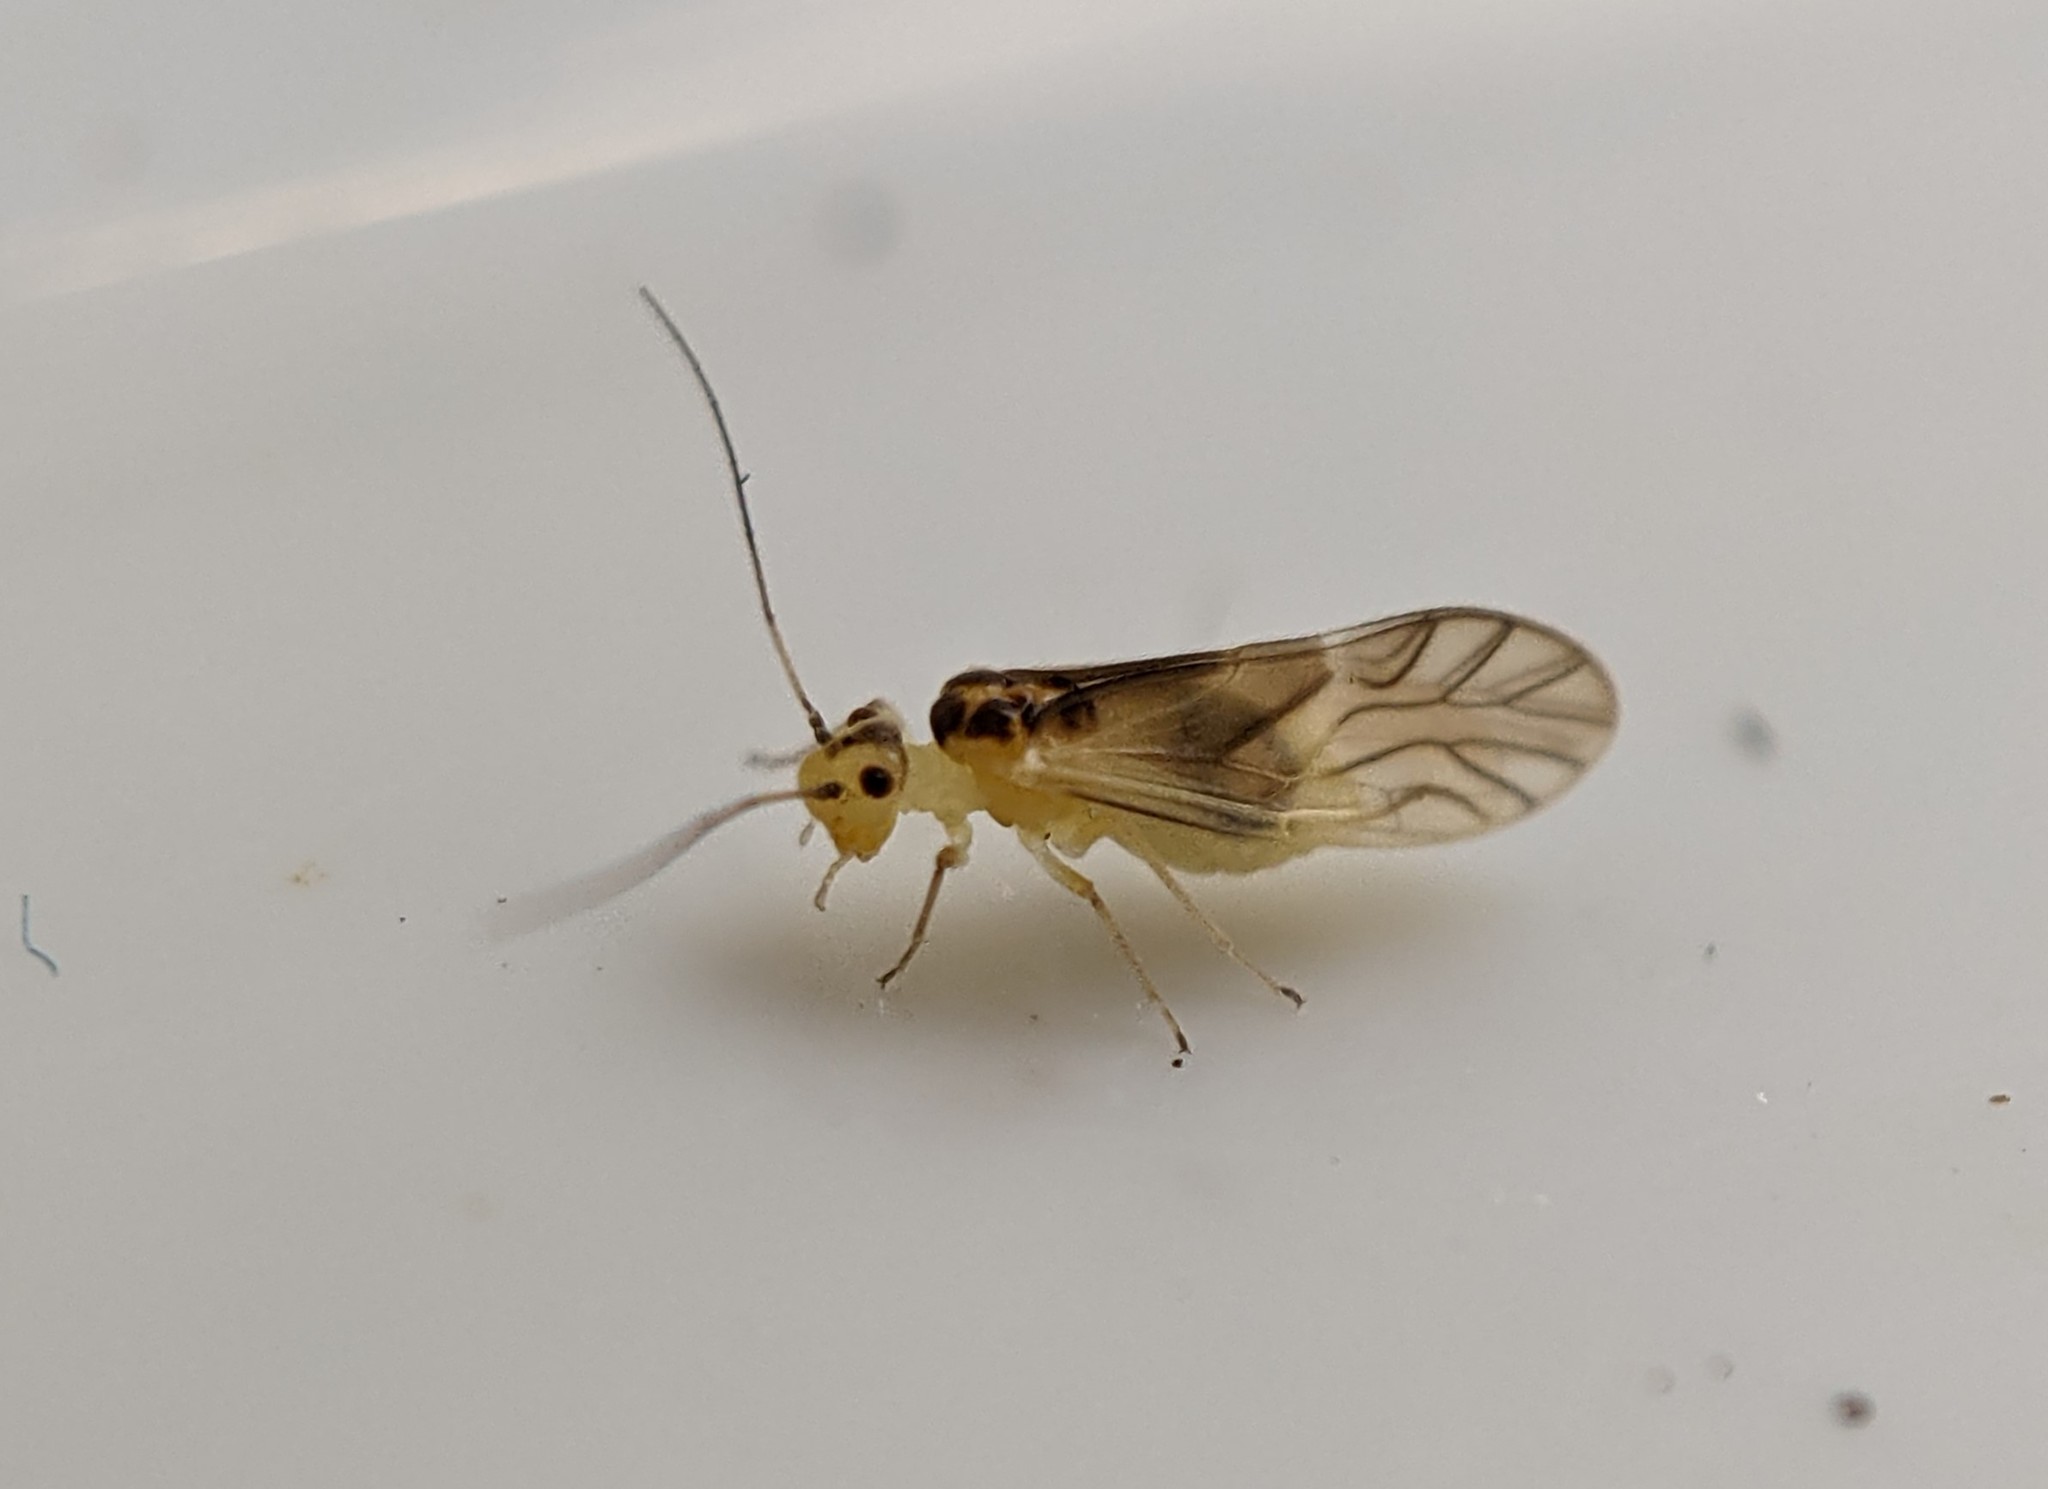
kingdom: Animalia
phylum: Arthropoda
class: Insecta
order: Psocodea
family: Caeciliusidae
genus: Valenzuela
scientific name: Valenzuela flavidus
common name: Yellow barklouse
